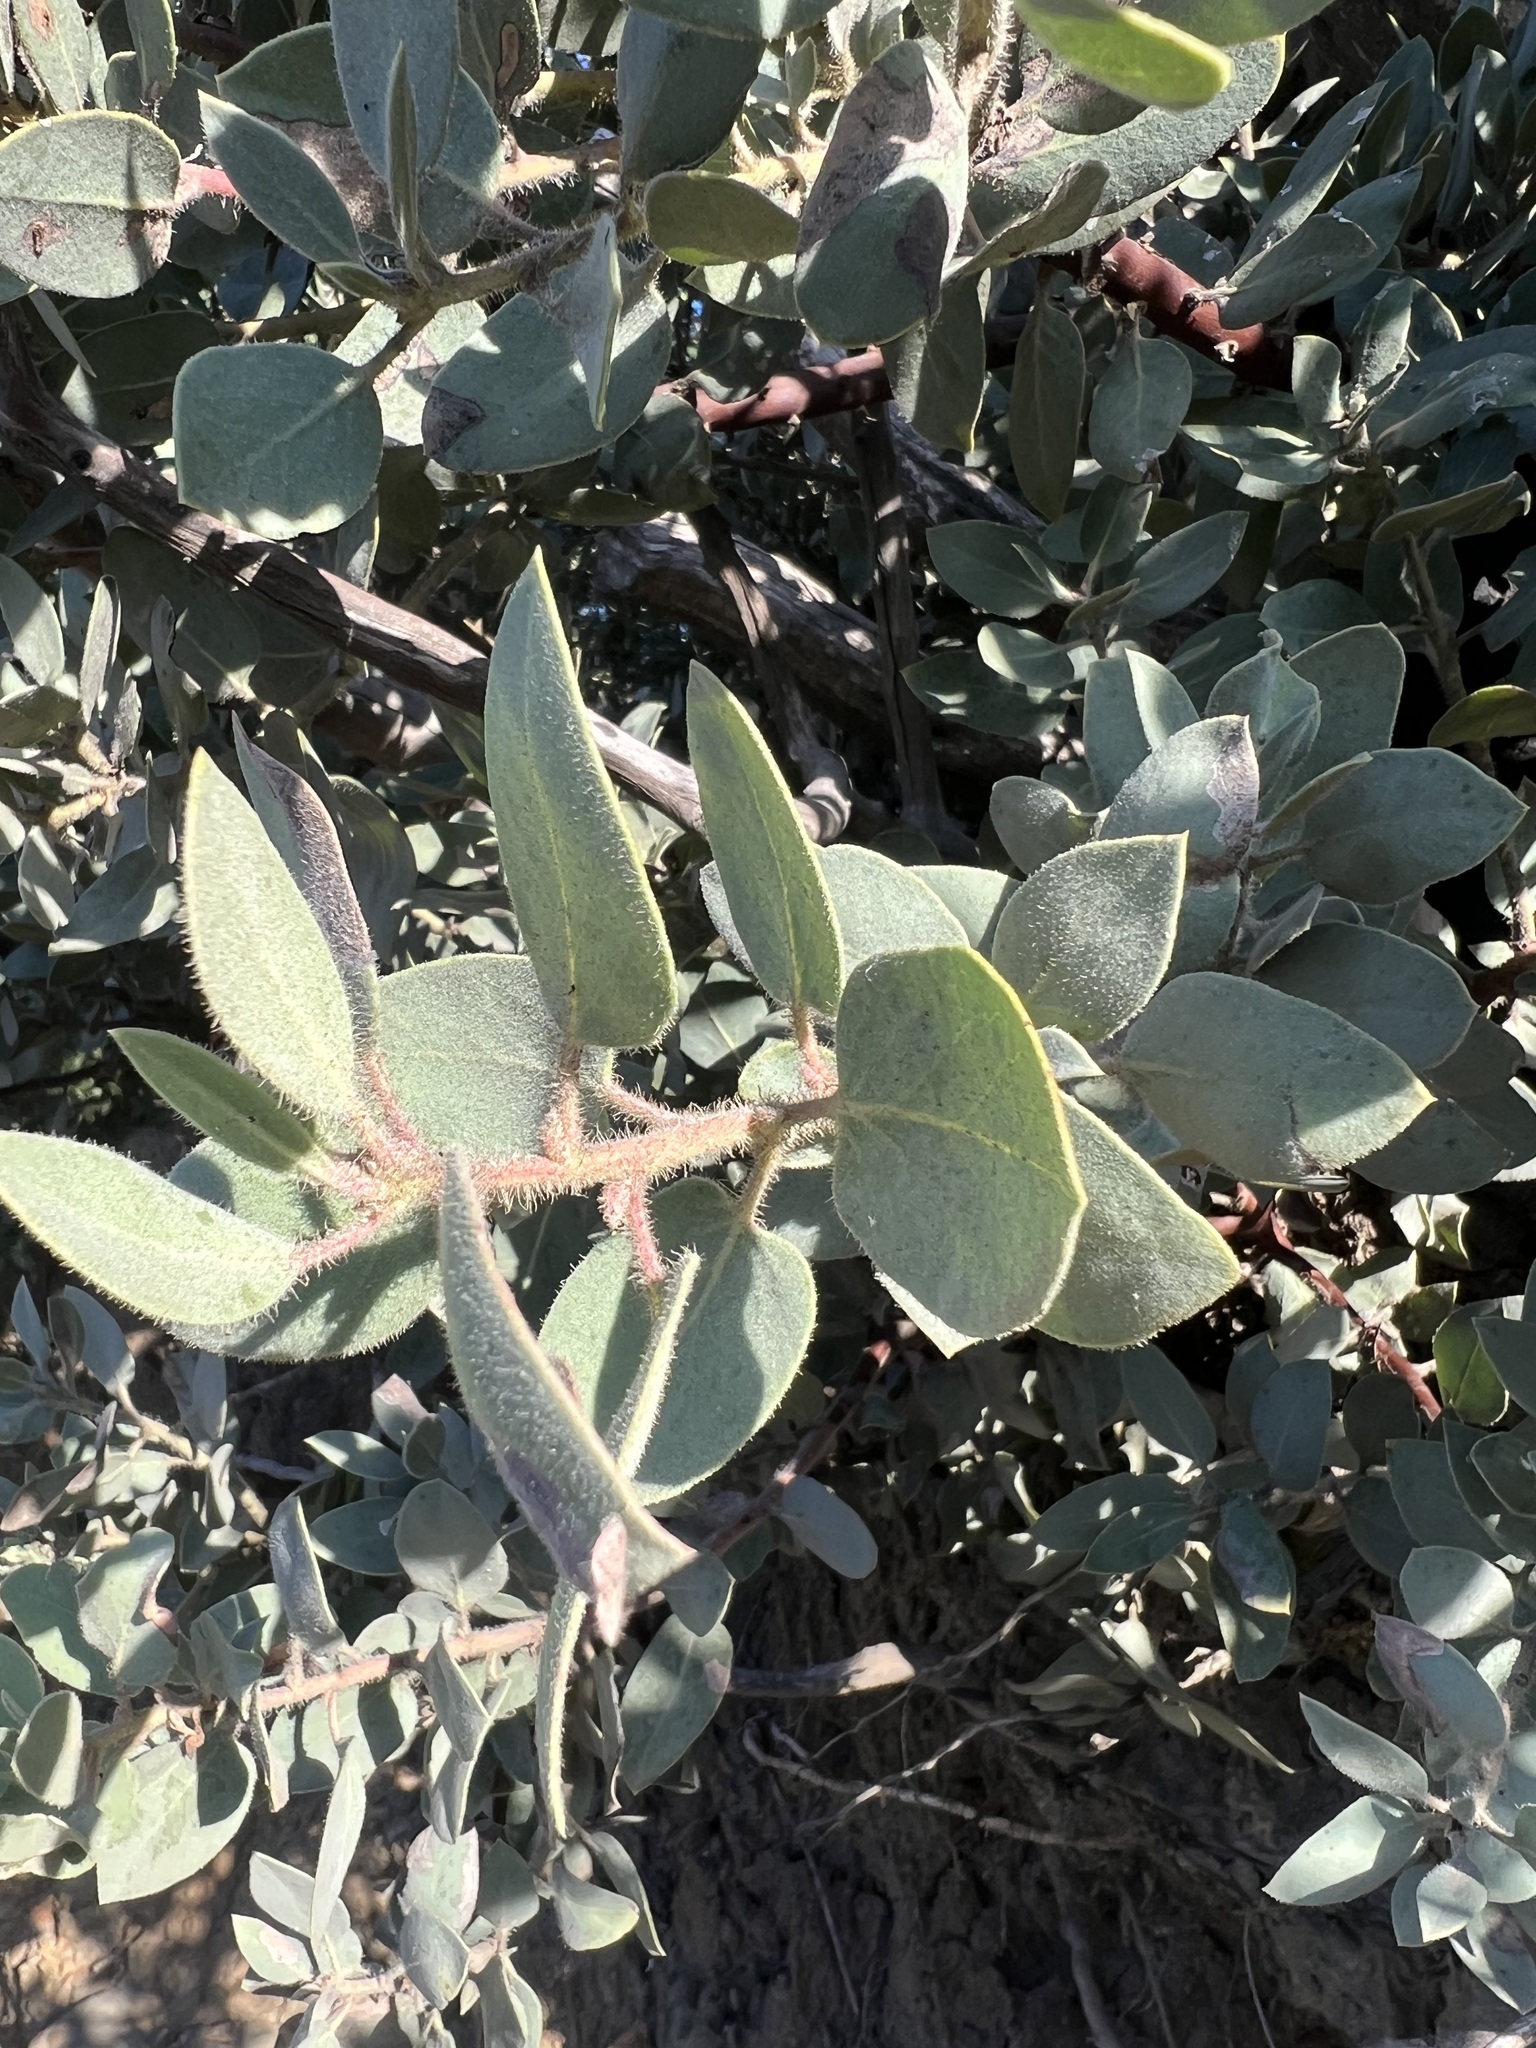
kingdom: Plantae
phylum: Tracheophyta
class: Magnoliopsida
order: Ericales
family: Ericaceae
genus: Arctostaphylos
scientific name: Arctostaphylos glandulosa
